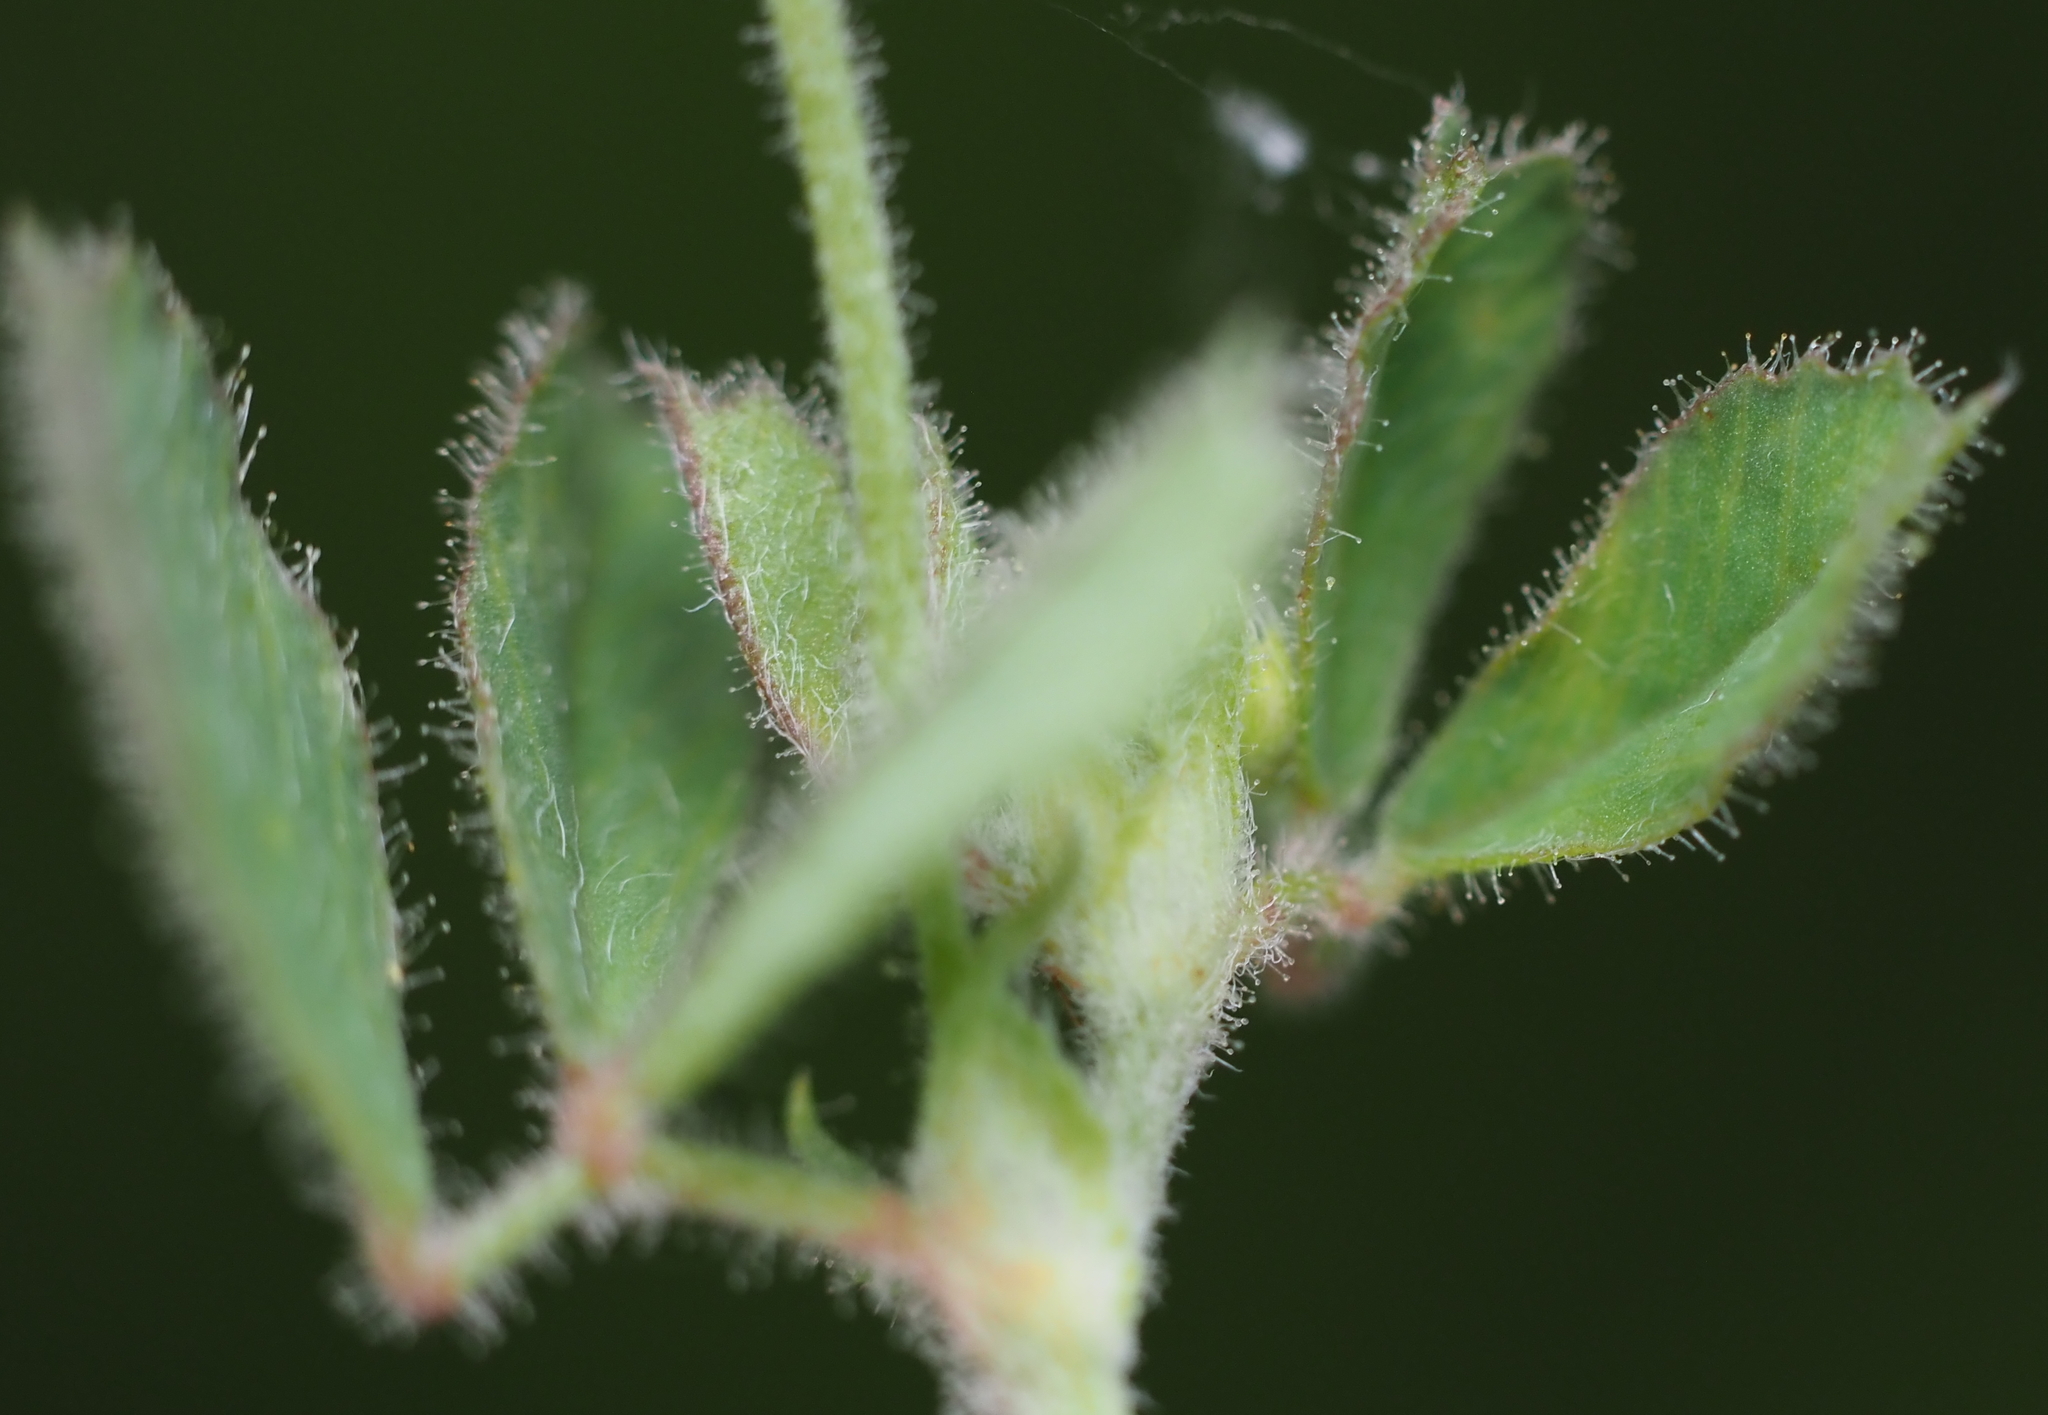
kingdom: Plantae
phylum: Tracheophyta
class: Magnoliopsida
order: Fabales
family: Fabaceae
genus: Medicago
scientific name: Medicago lupulina
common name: Black medick
